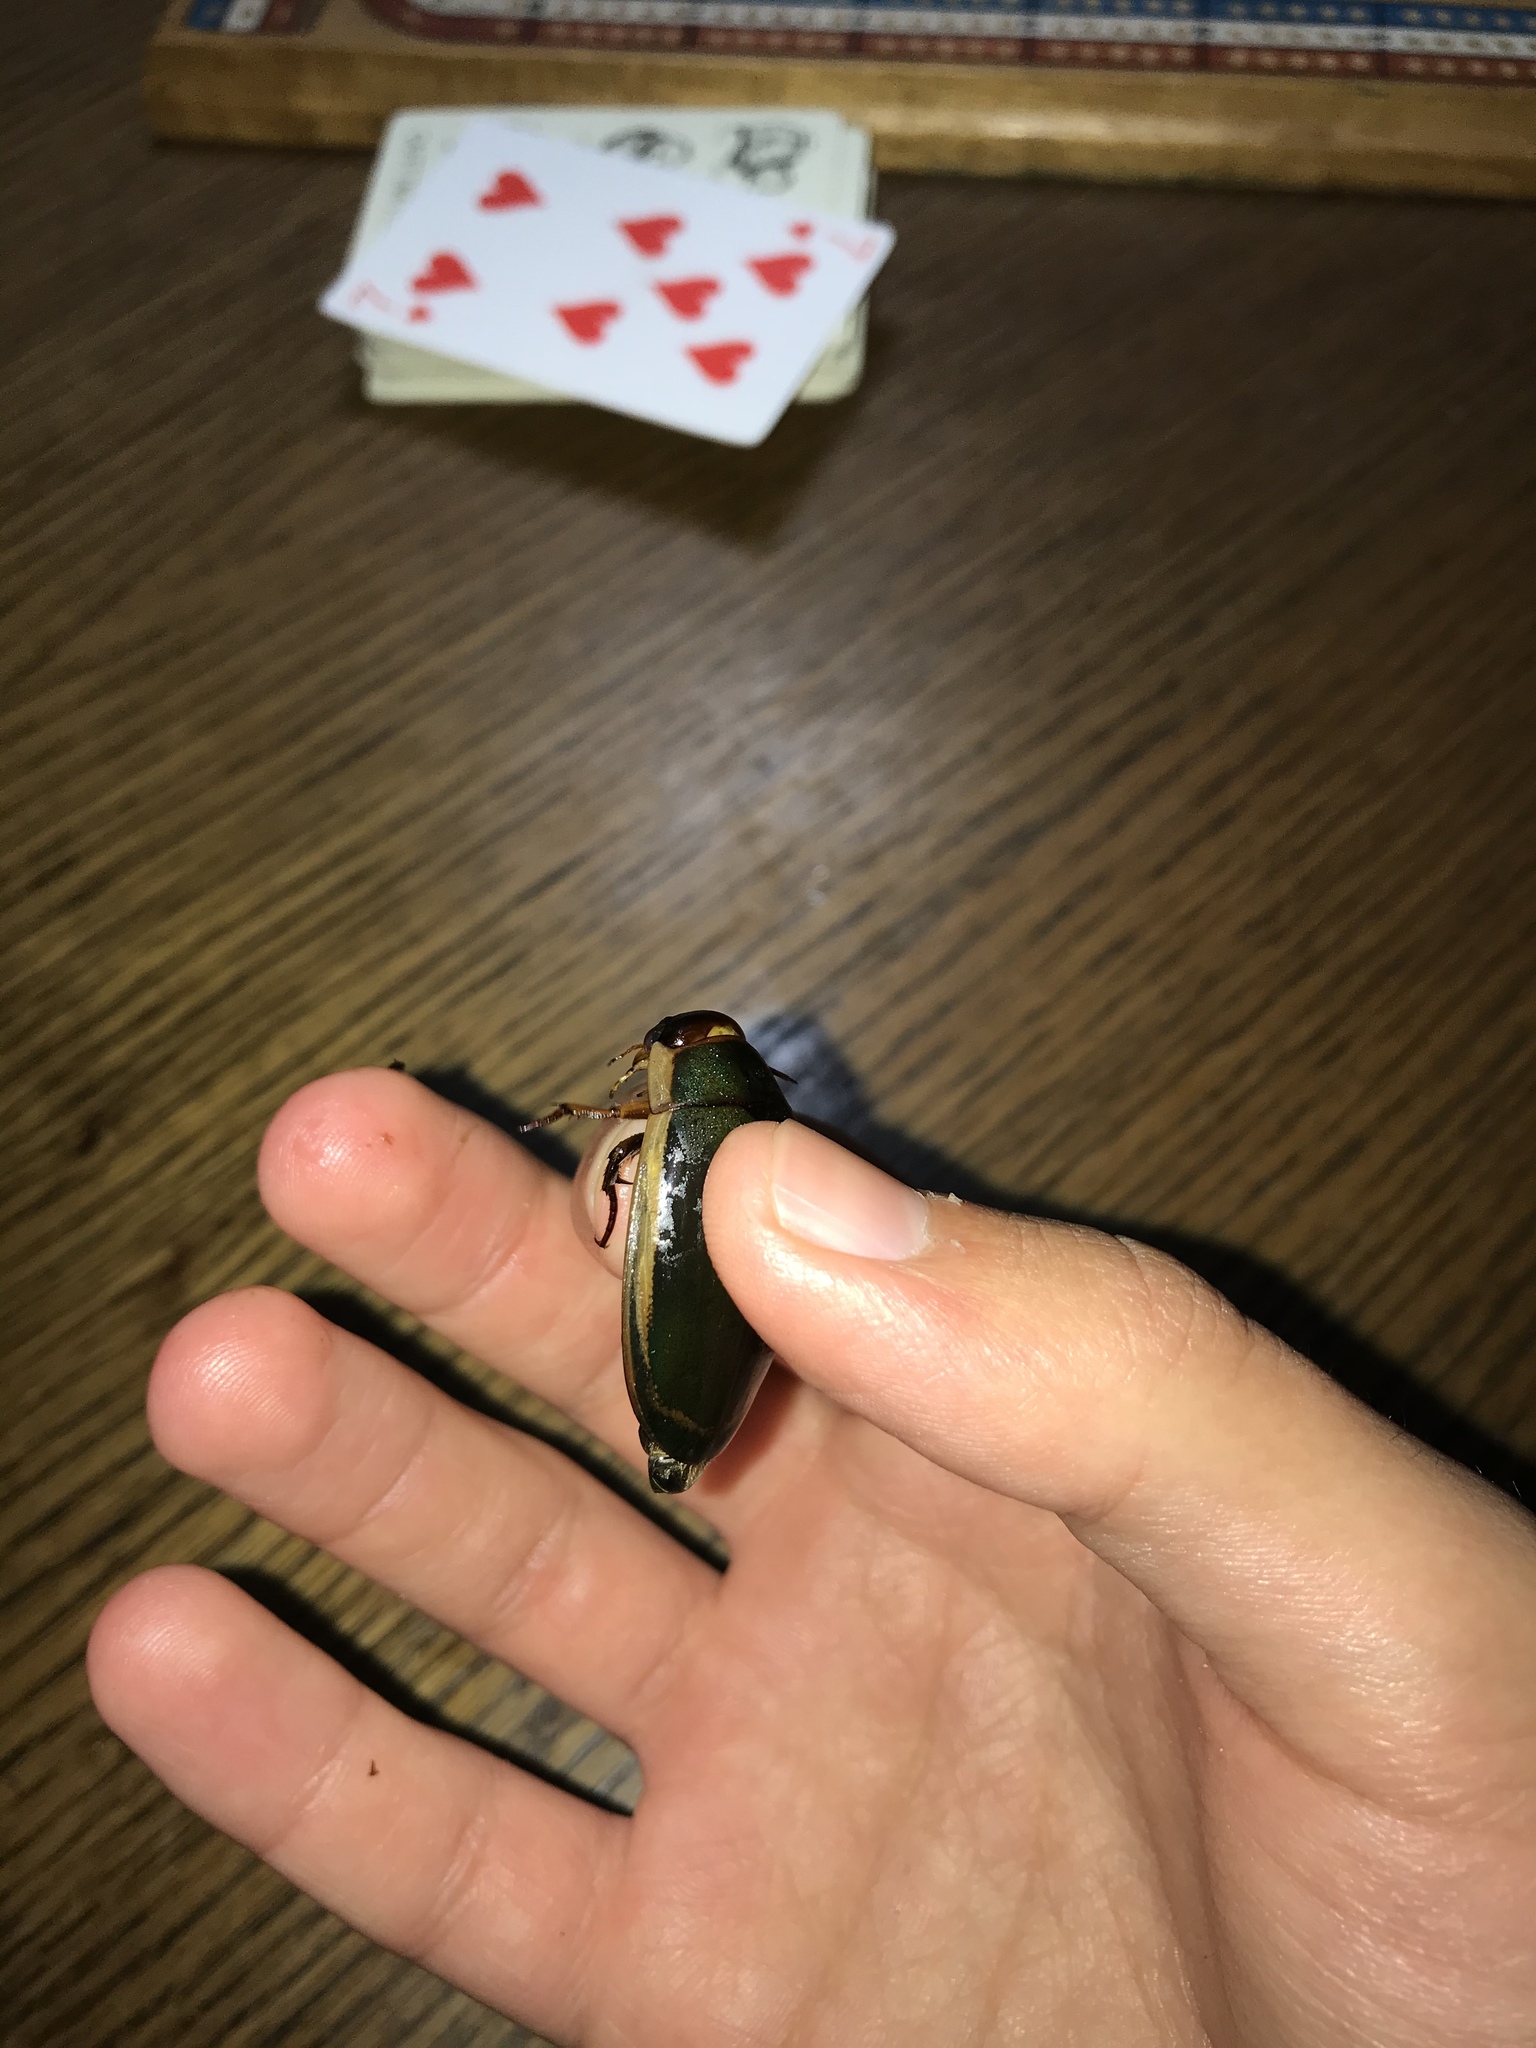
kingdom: Animalia
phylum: Arthropoda
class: Insecta
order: Coleoptera
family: Dytiscidae
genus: Dytiscus
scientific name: Dytiscus verticalis
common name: Vertical diving beetle
